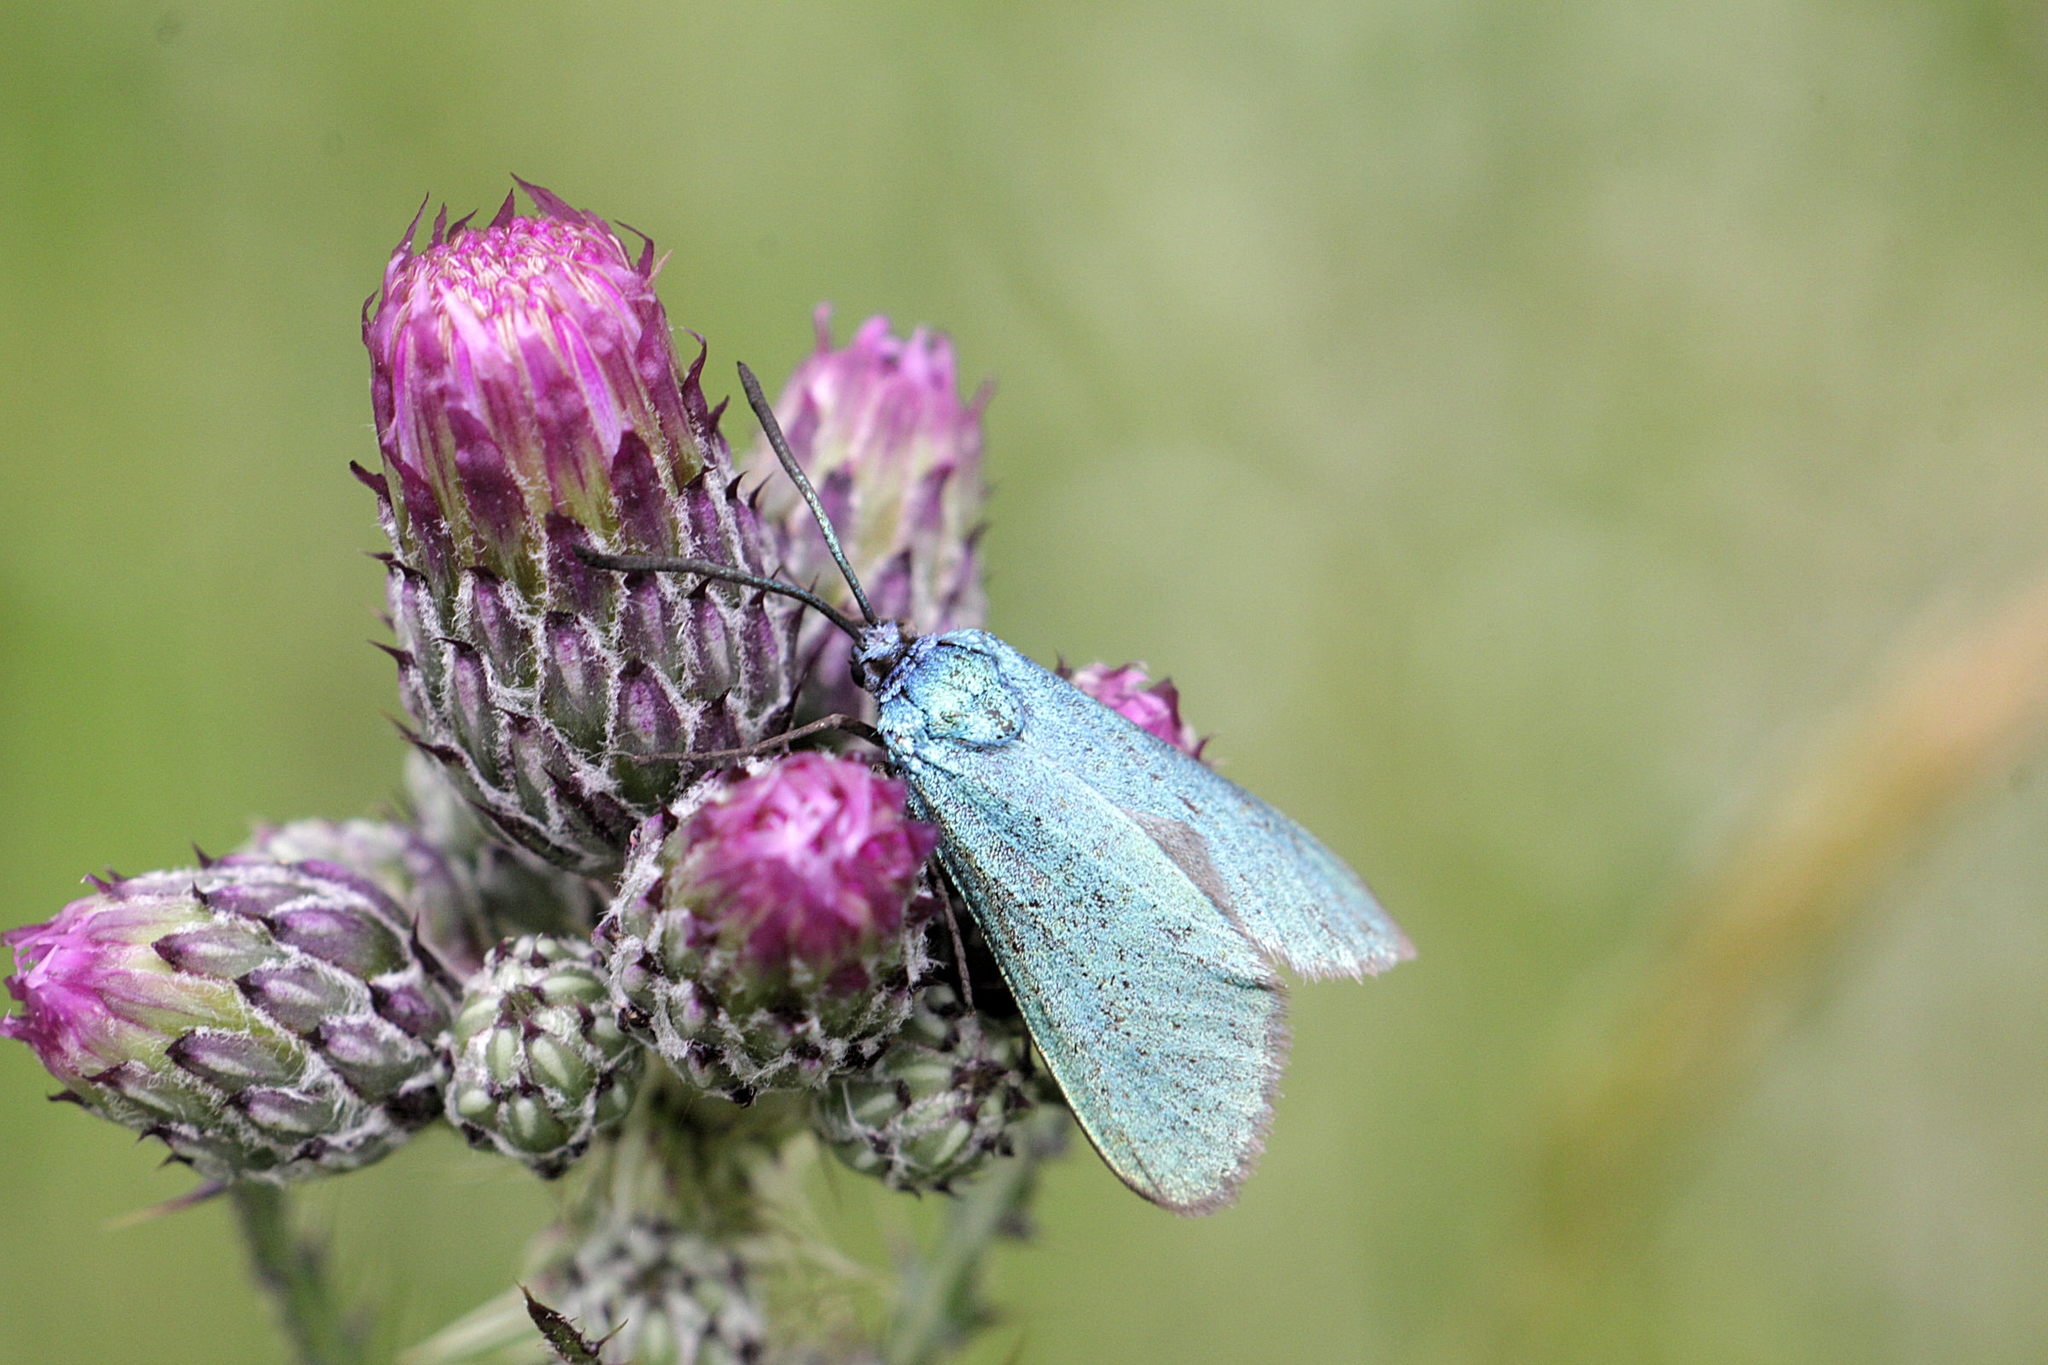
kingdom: Animalia
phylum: Arthropoda
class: Insecta
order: Lepidoptera
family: Zygaenidae
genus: Adscita
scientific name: Adscita
